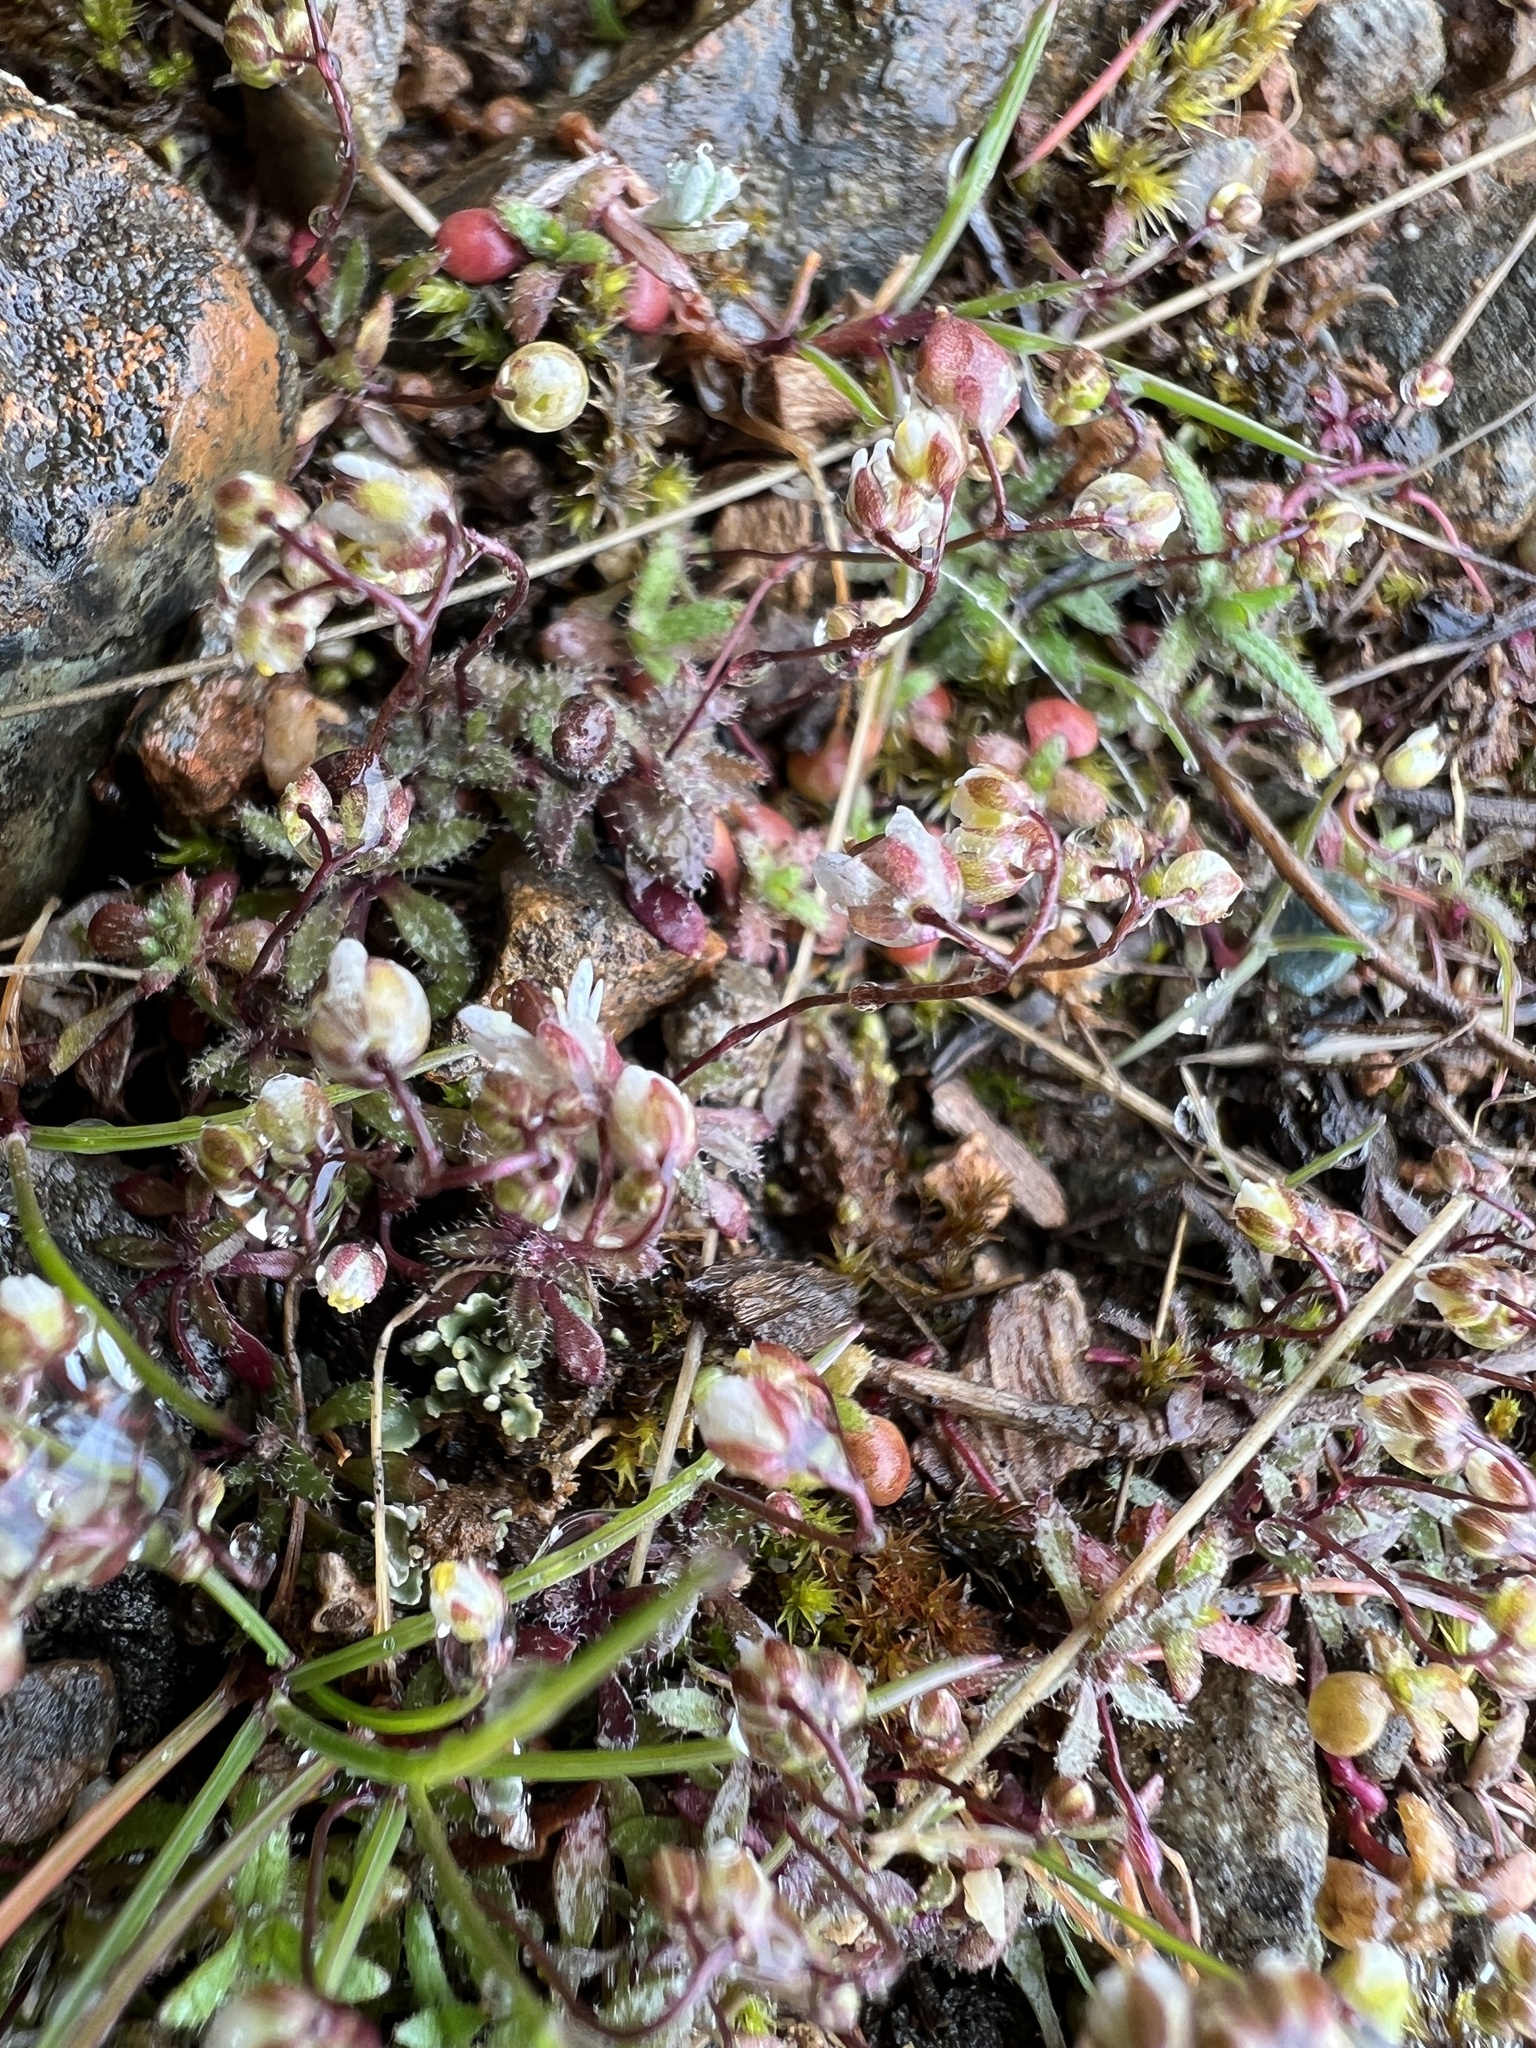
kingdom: Plantae
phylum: Tracheophyta
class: Magnoliopsida
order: Brassicales
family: Brassicaceae
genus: Draba
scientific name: Draba verna
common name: Spring draba
